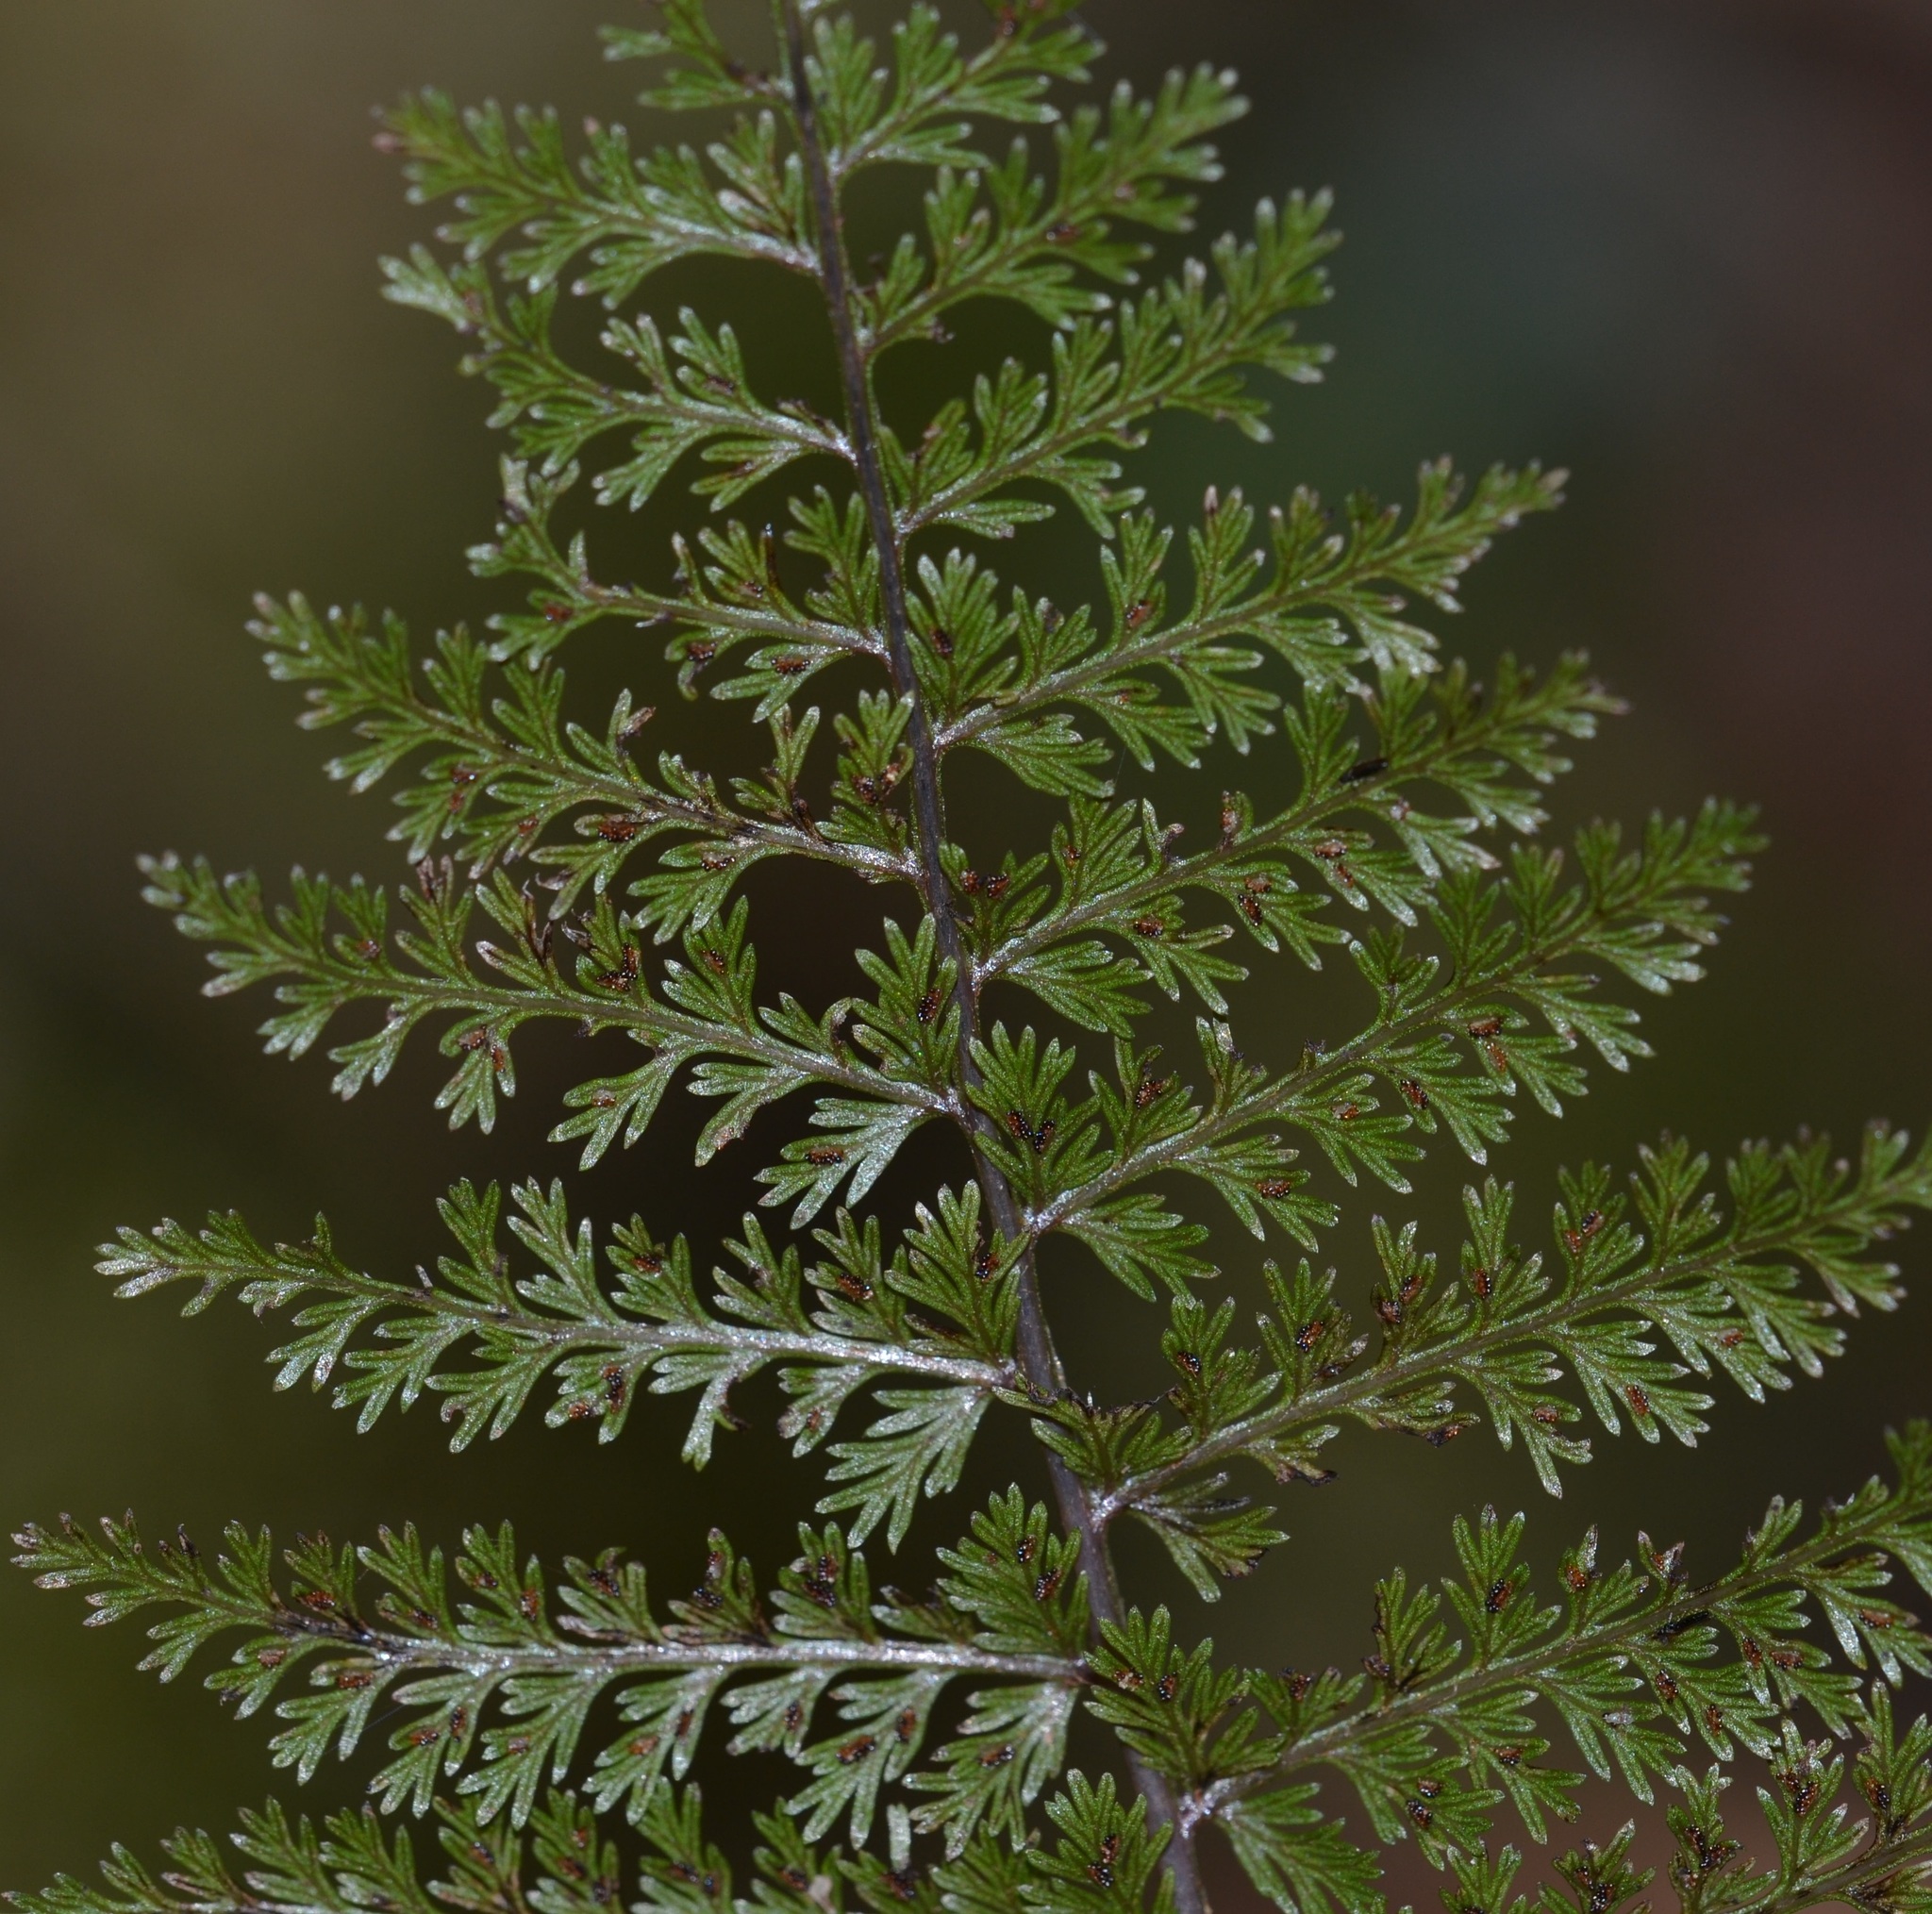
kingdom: Plantae
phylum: Tracheophyta
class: Polypodiopsida
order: Polypodiales
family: Athyriaceae
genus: Athyrium
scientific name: Athyrium microphyllum
